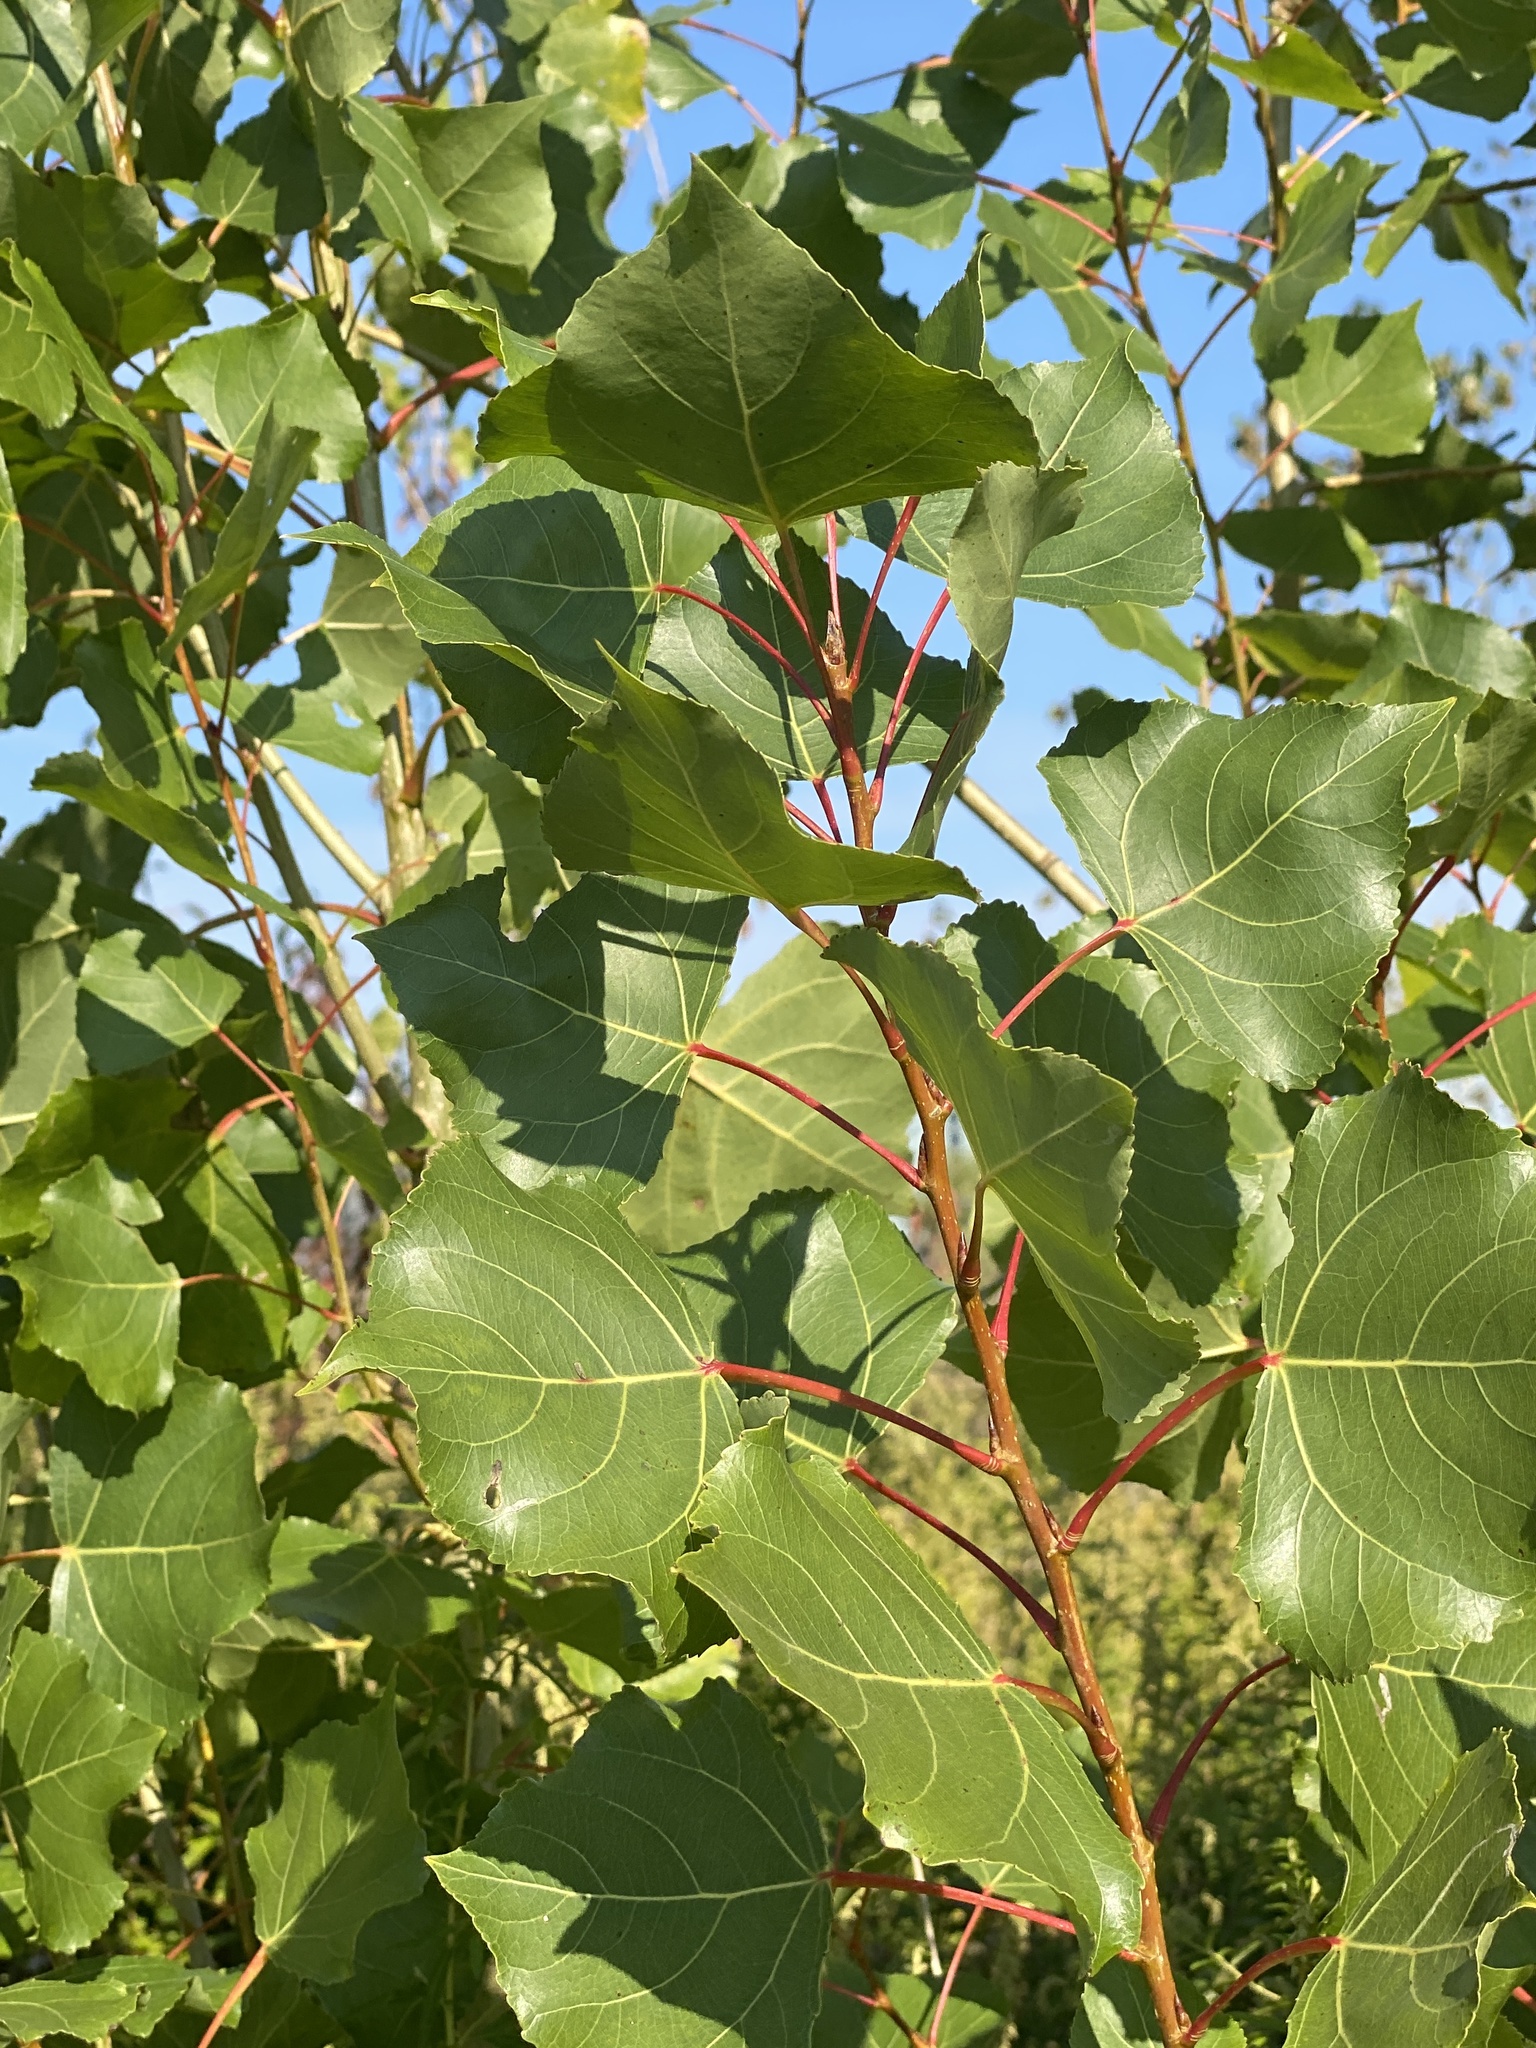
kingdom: Plantae
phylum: Tracheophyta
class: Magnoliopsida
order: Malpighiales
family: Salicaceae
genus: Populus
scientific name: Populus deltoides
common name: Eastern cottonwood
